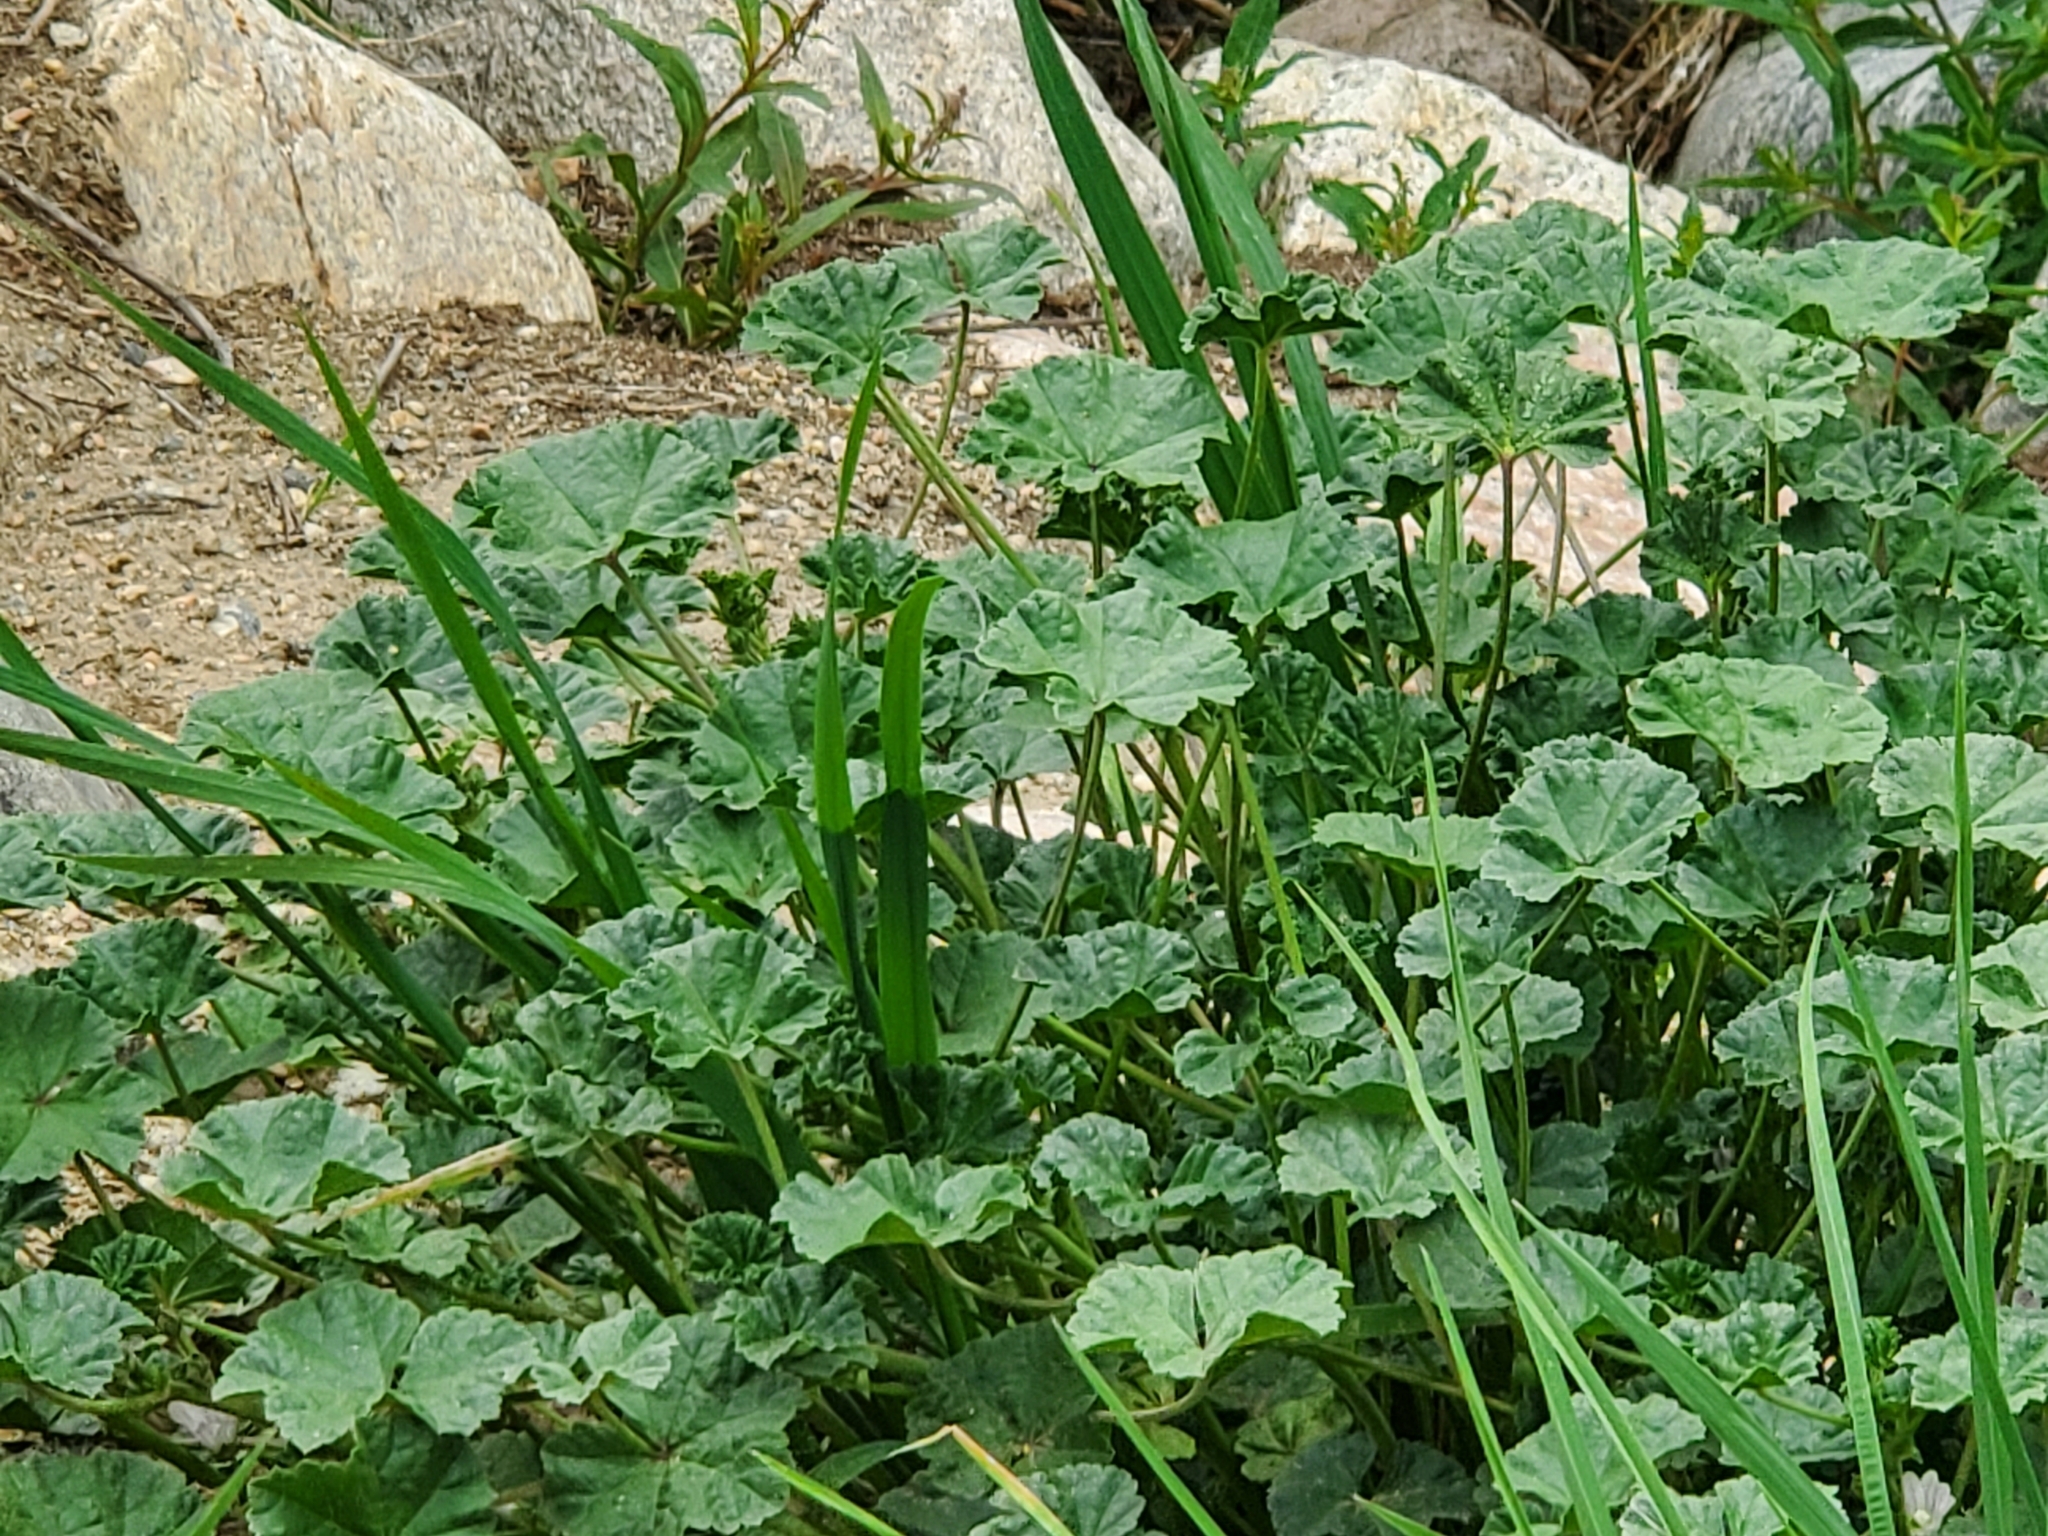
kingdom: Plantae
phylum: Tracheophyta
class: Magnoliopsida
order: Malvales
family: Malvaceae
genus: Malva
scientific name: Malva neglecta
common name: Common mallow
